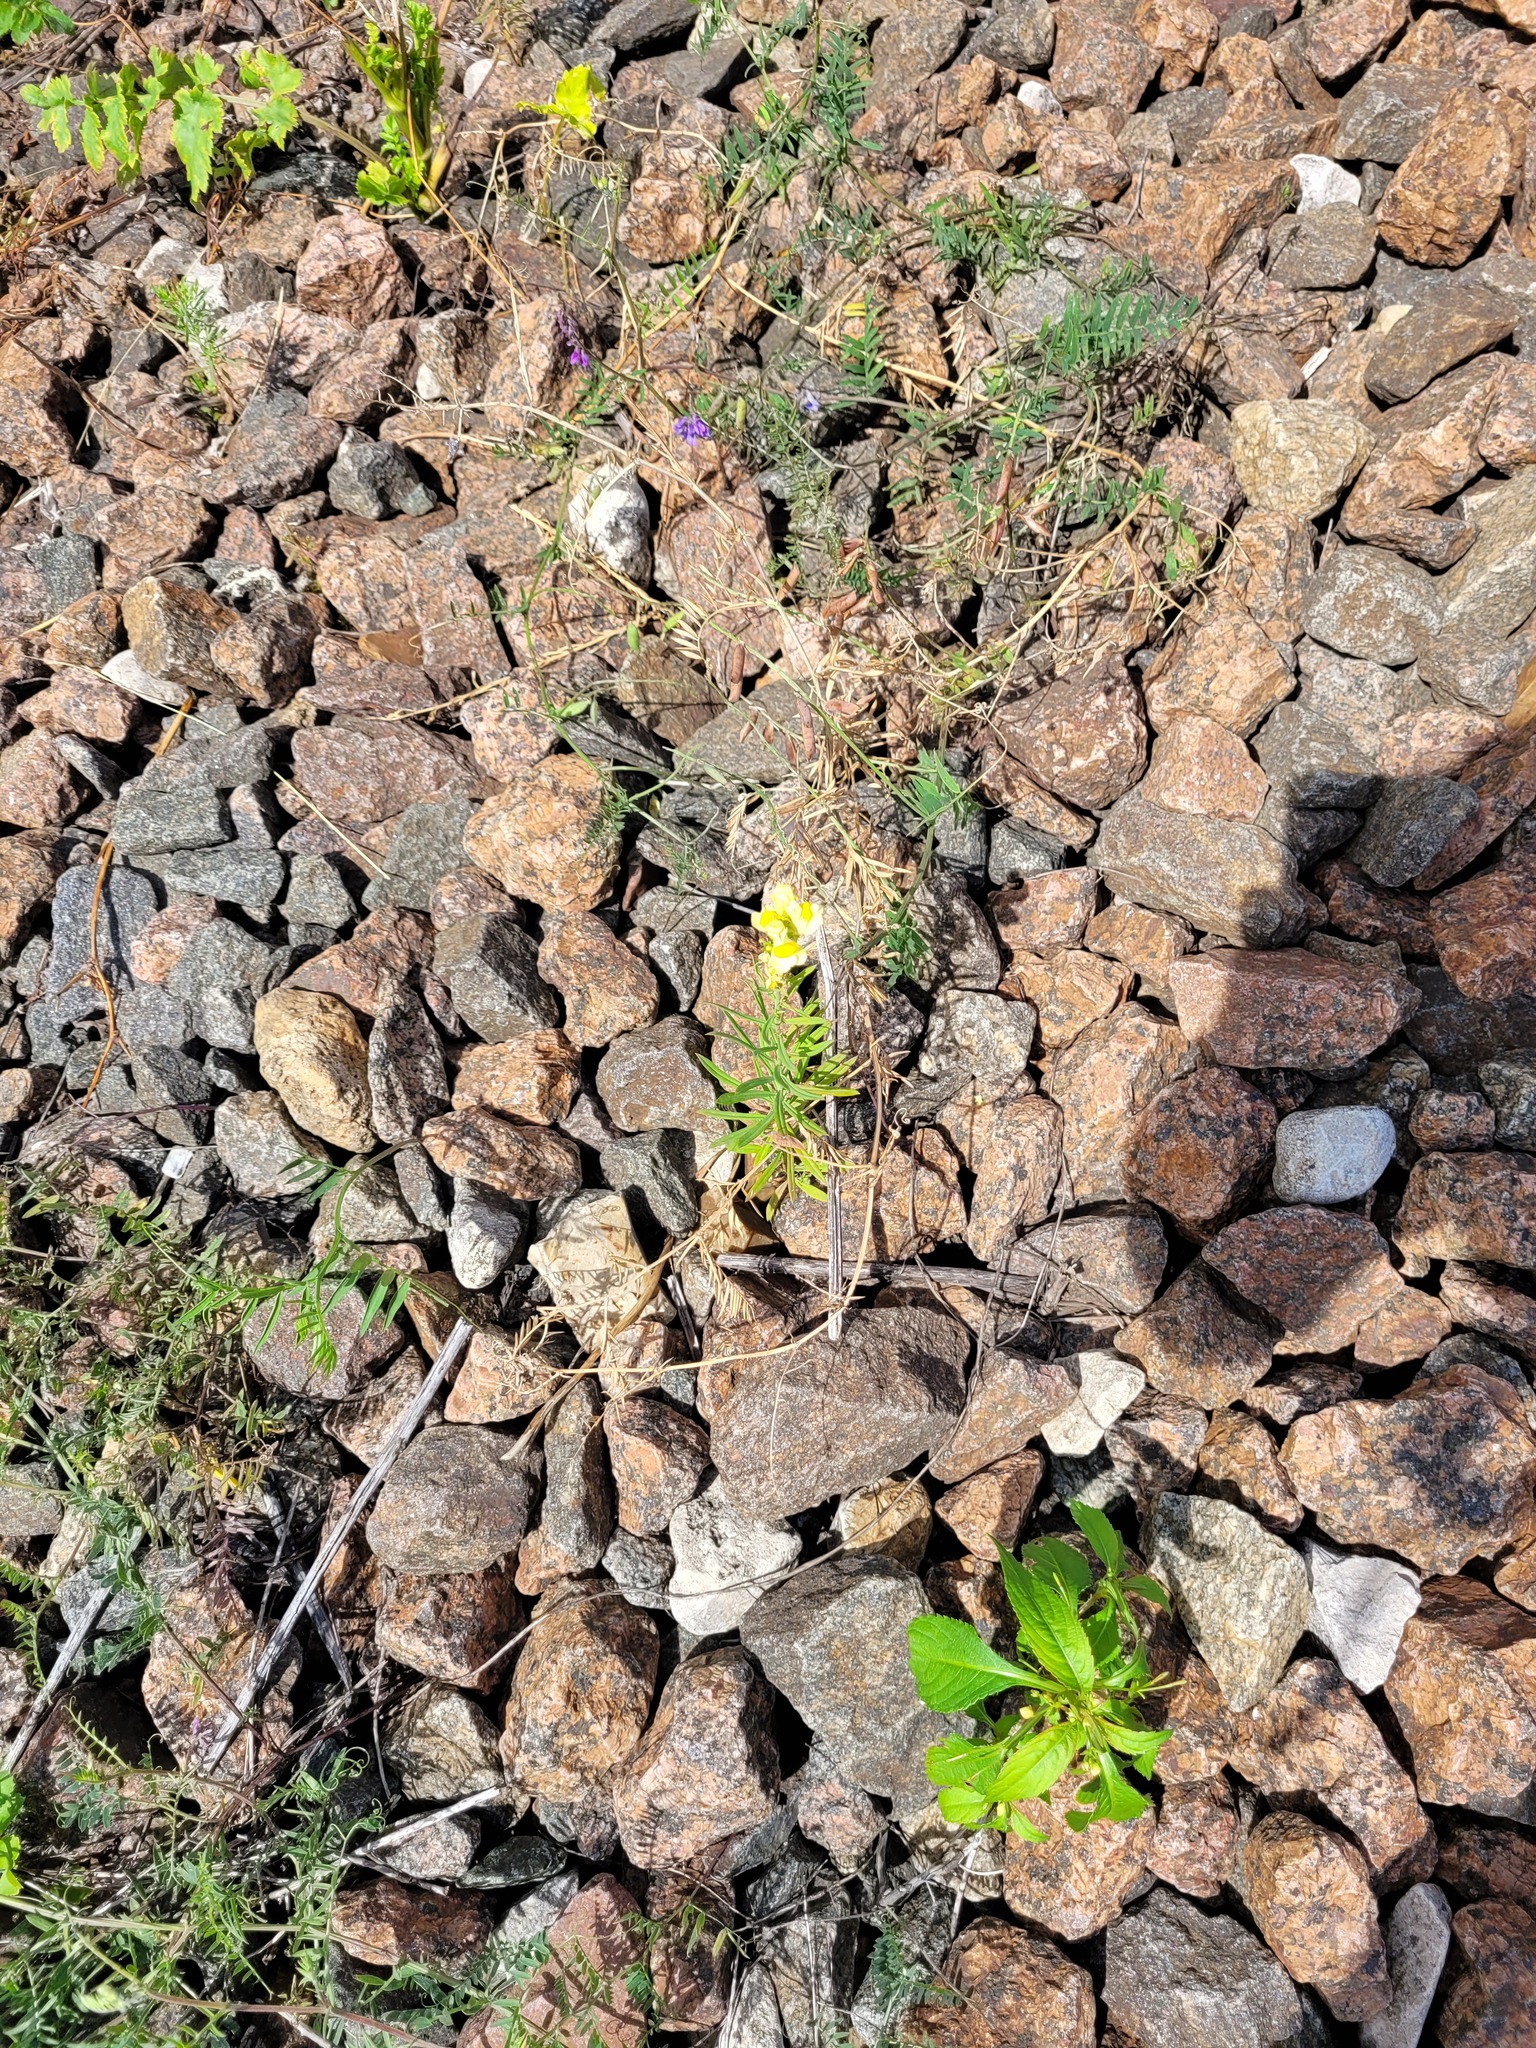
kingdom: Plantae
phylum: Tracheophyta
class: Magnoliopsida
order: Lamiales
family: Plantaginaceae
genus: Linaria
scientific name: Linaria vulgaris
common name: Butter and eggs
